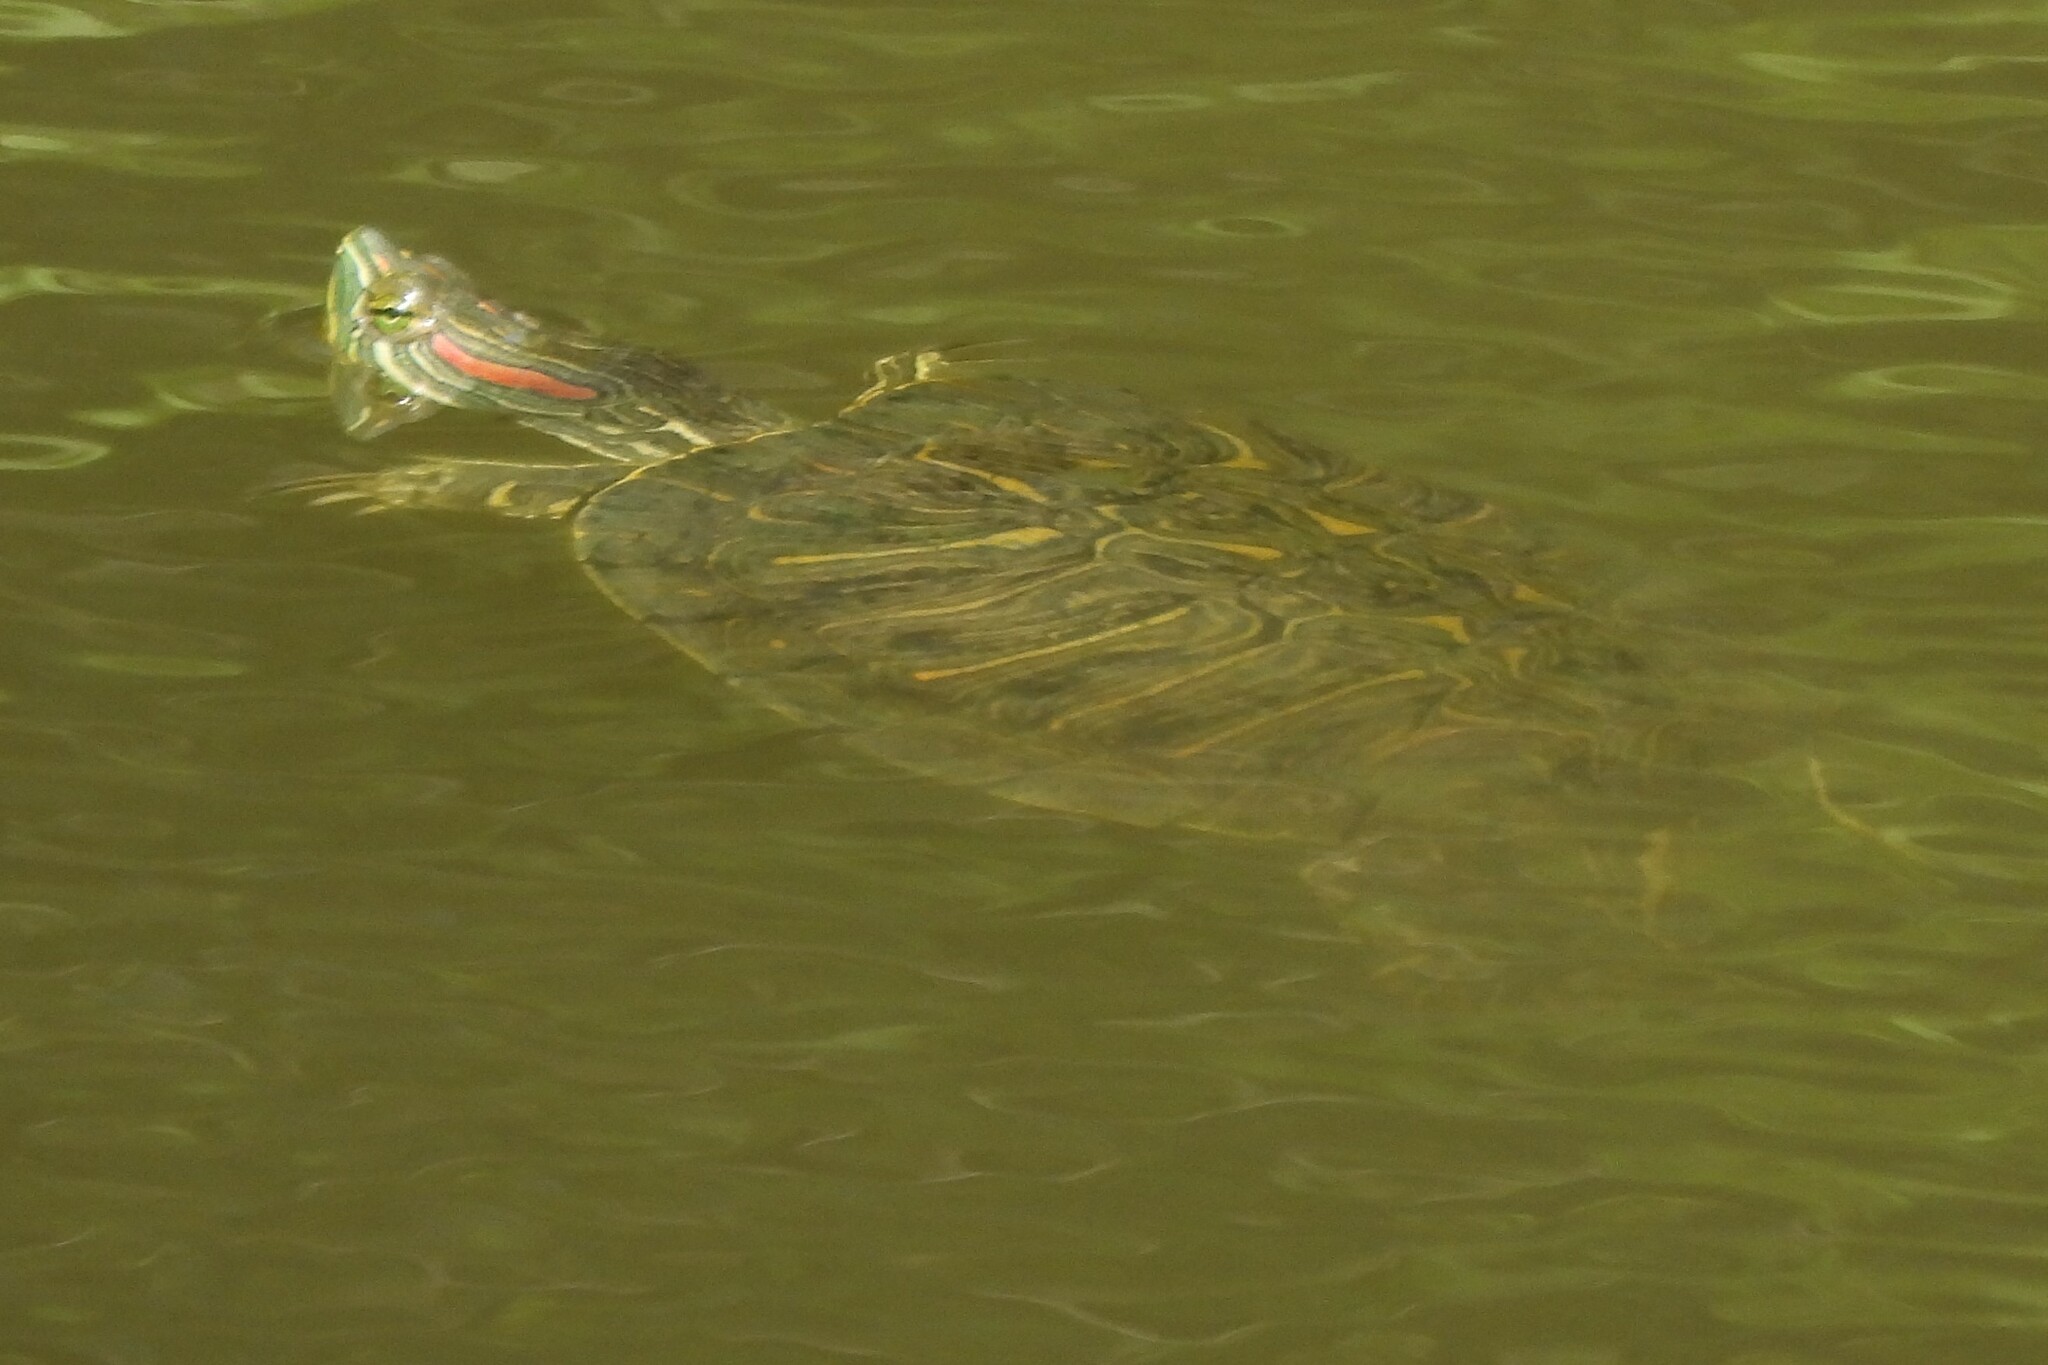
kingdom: Animalia
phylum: Chordata
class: Testudines
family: Emydidae
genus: Trachemys
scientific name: Trachemys scripta
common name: Slider
